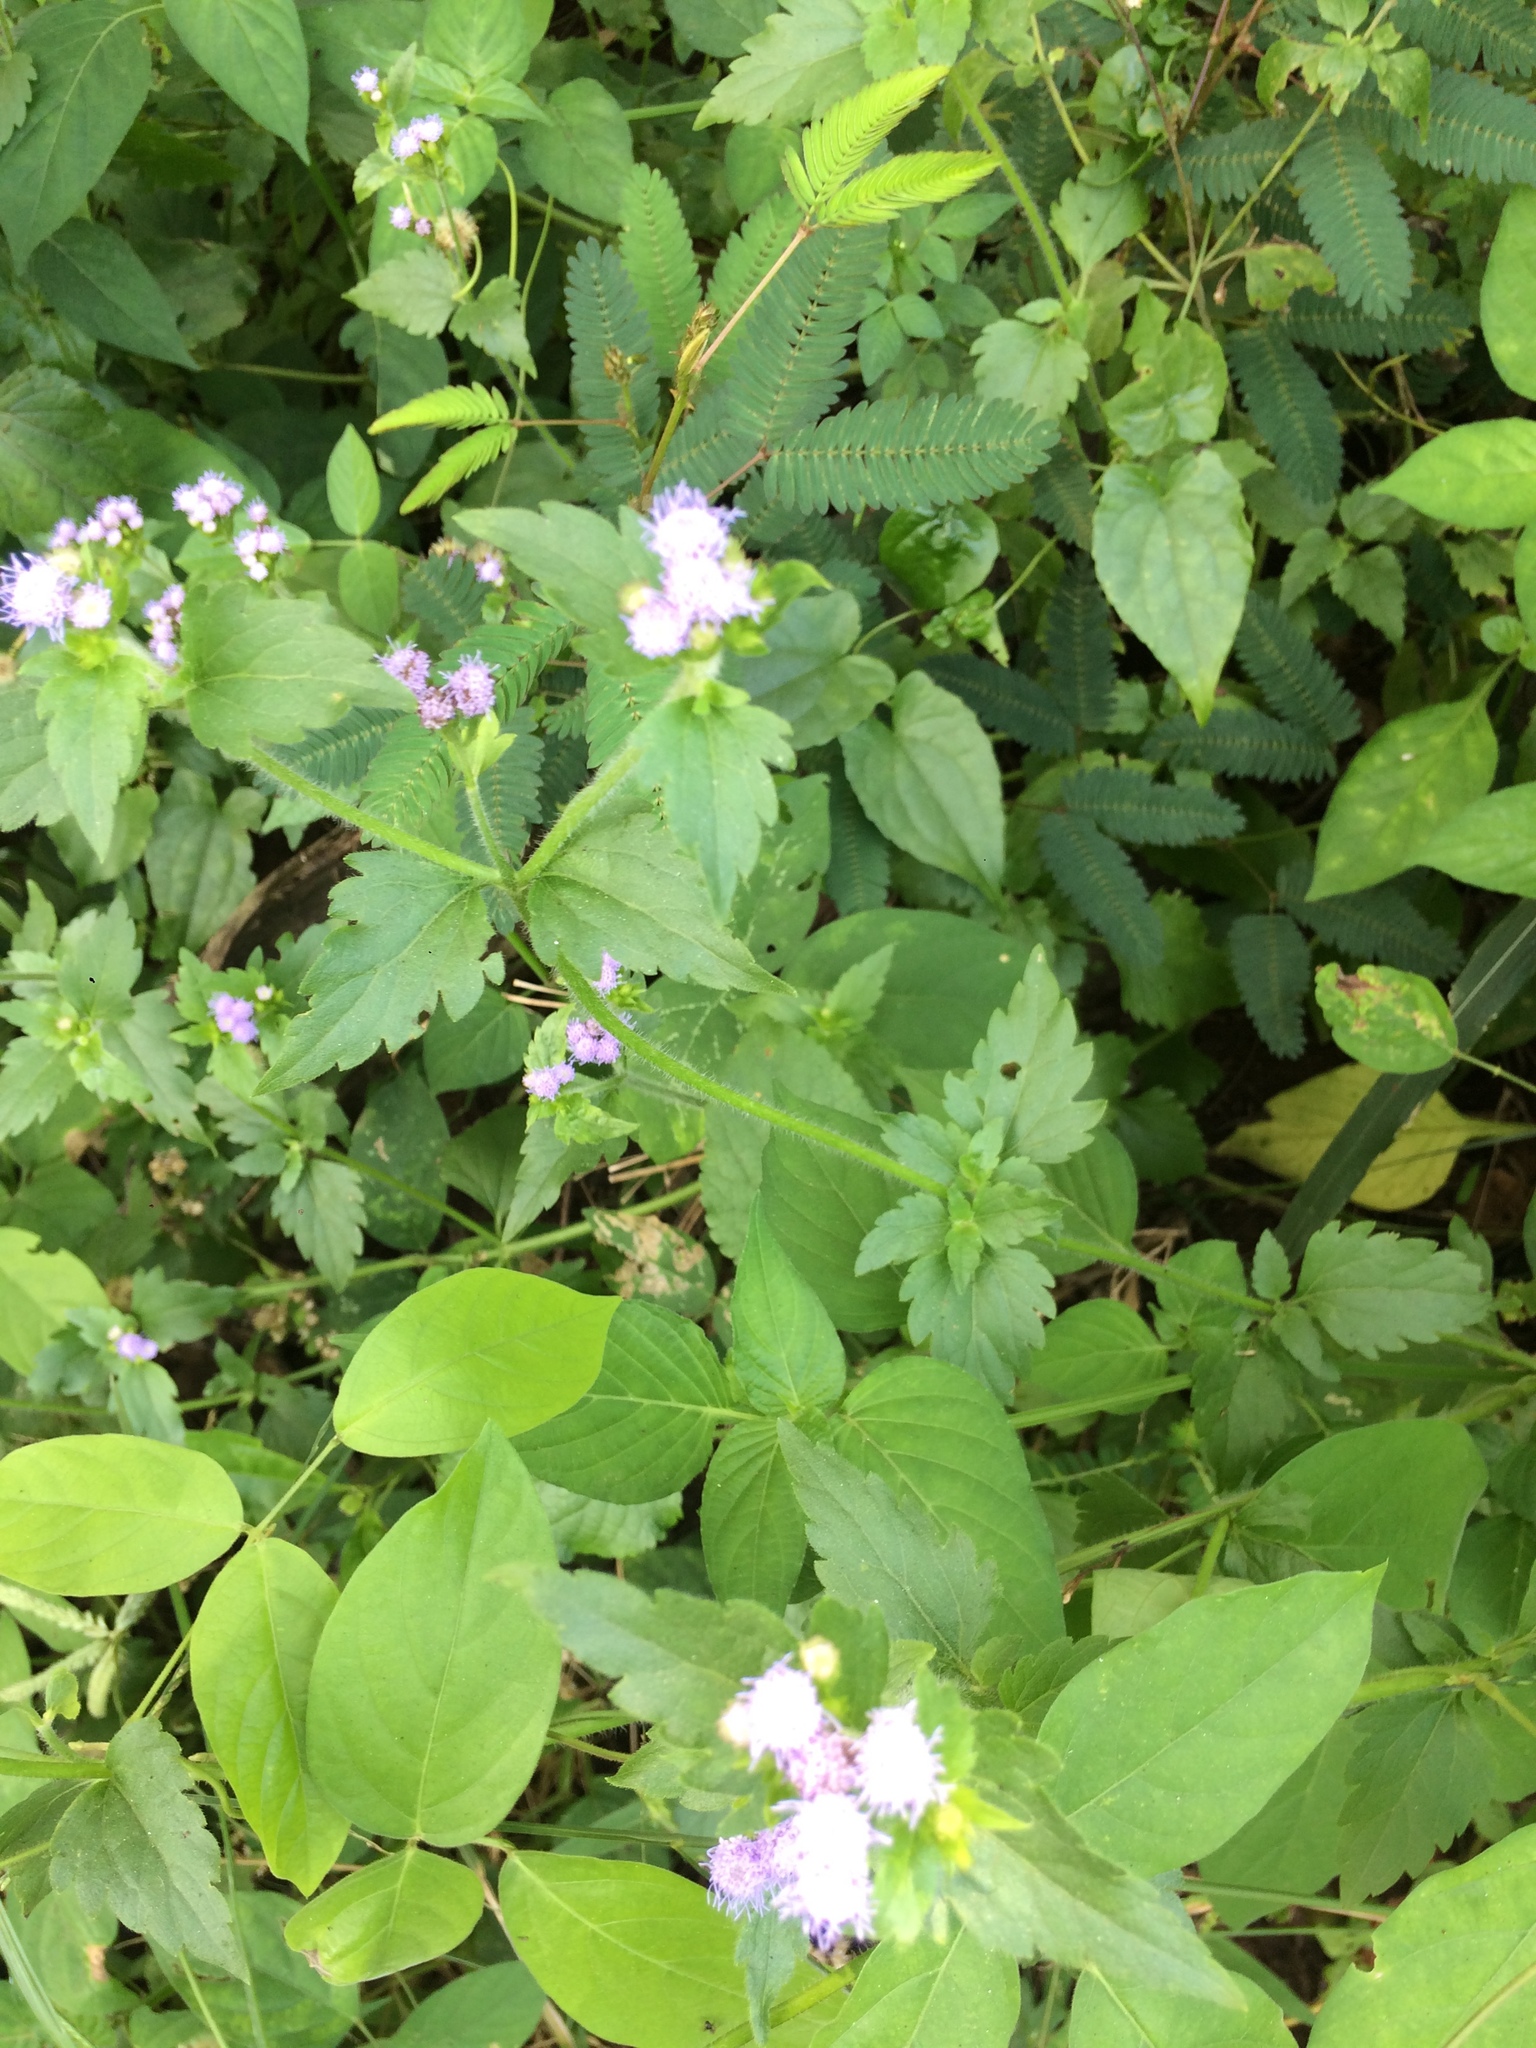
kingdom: Plantae
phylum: Tracheophyta
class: Magnoliopsida
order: Asterales
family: Asteraceae
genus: Praxelis
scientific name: Praxelis clematidea
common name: Praxelis
